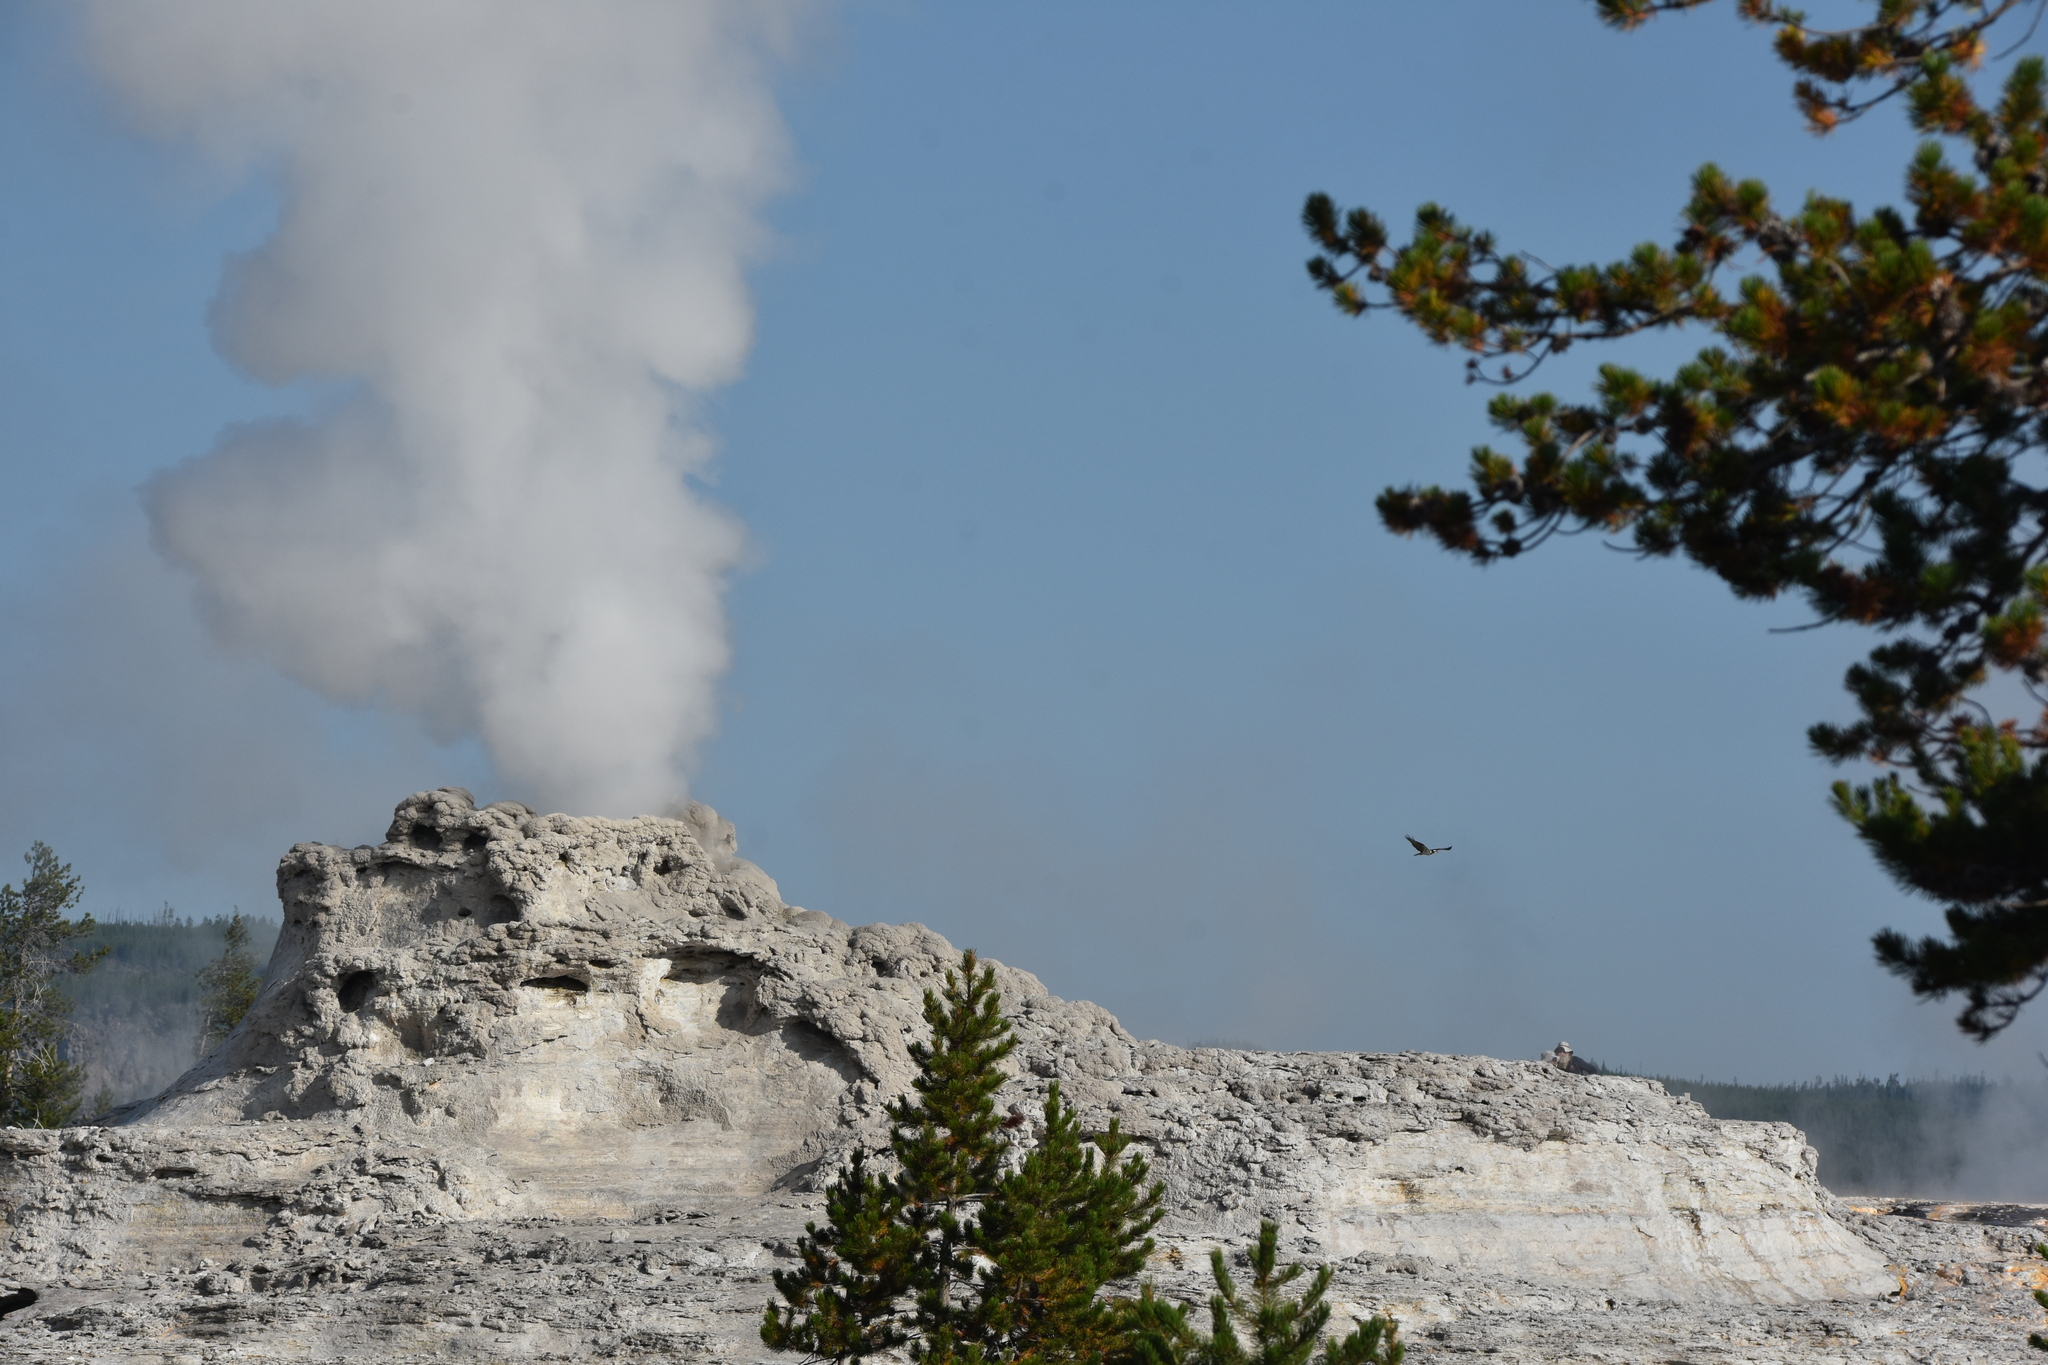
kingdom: Animalia
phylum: Chordata
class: Aves
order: Accipitriformes
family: Pandionidae
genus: Pandion
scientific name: Pandion haliaetus
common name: Osprey
